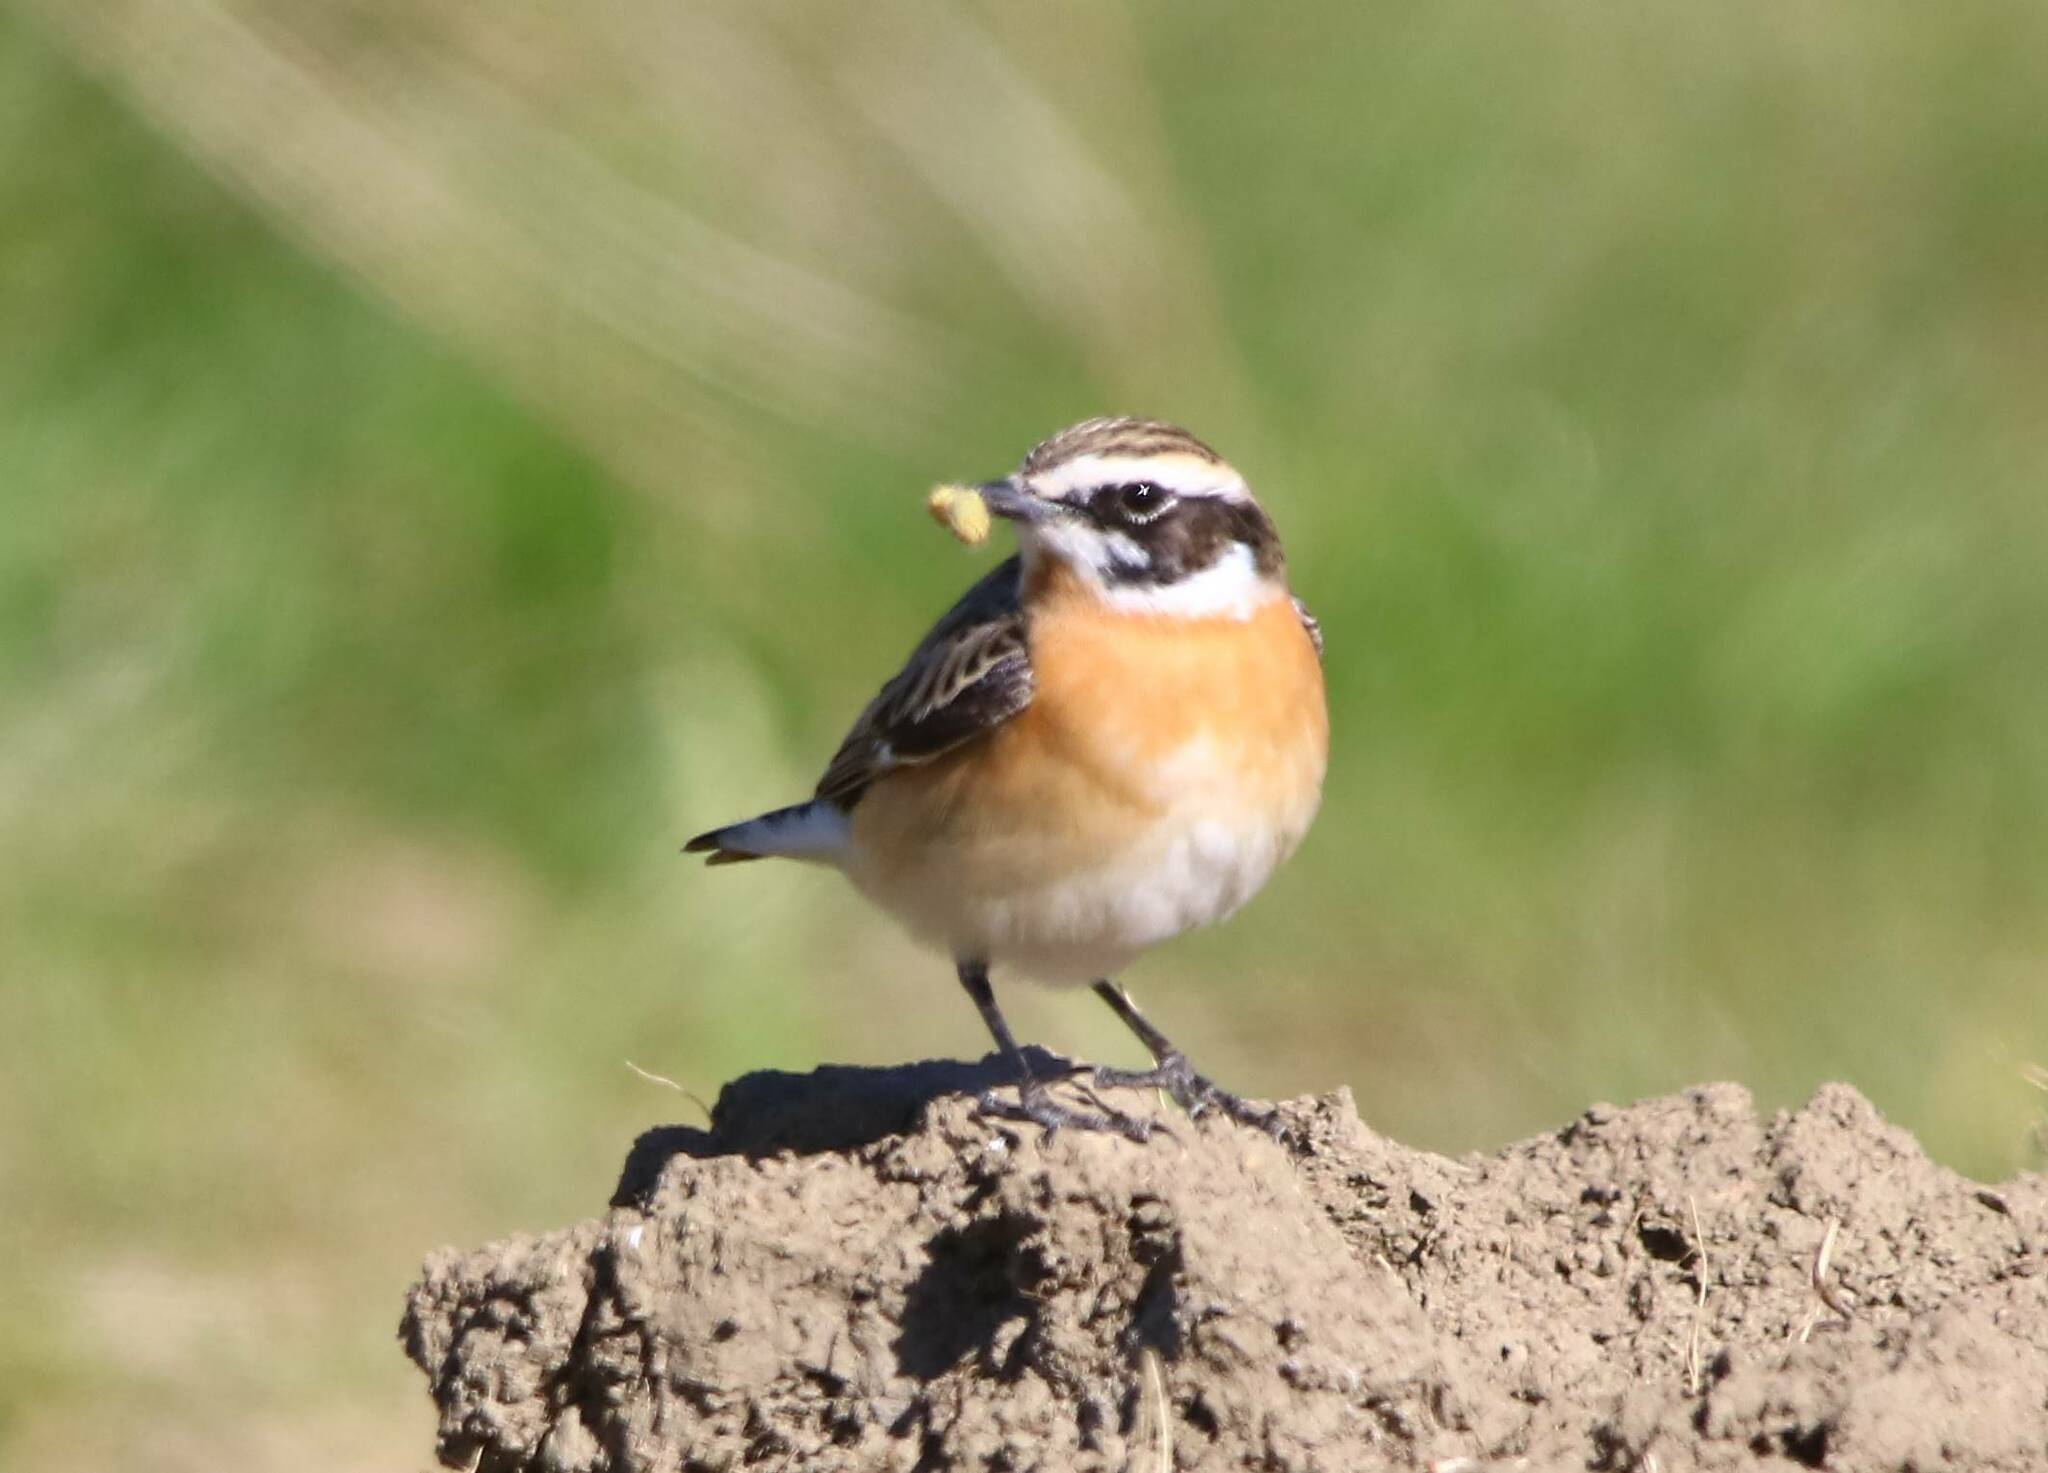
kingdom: Animalia
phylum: Chordata
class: Aves
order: Passeriformes
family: Muscicapidae
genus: Saxicola
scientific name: Saxicola rubetra
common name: Whinchat
